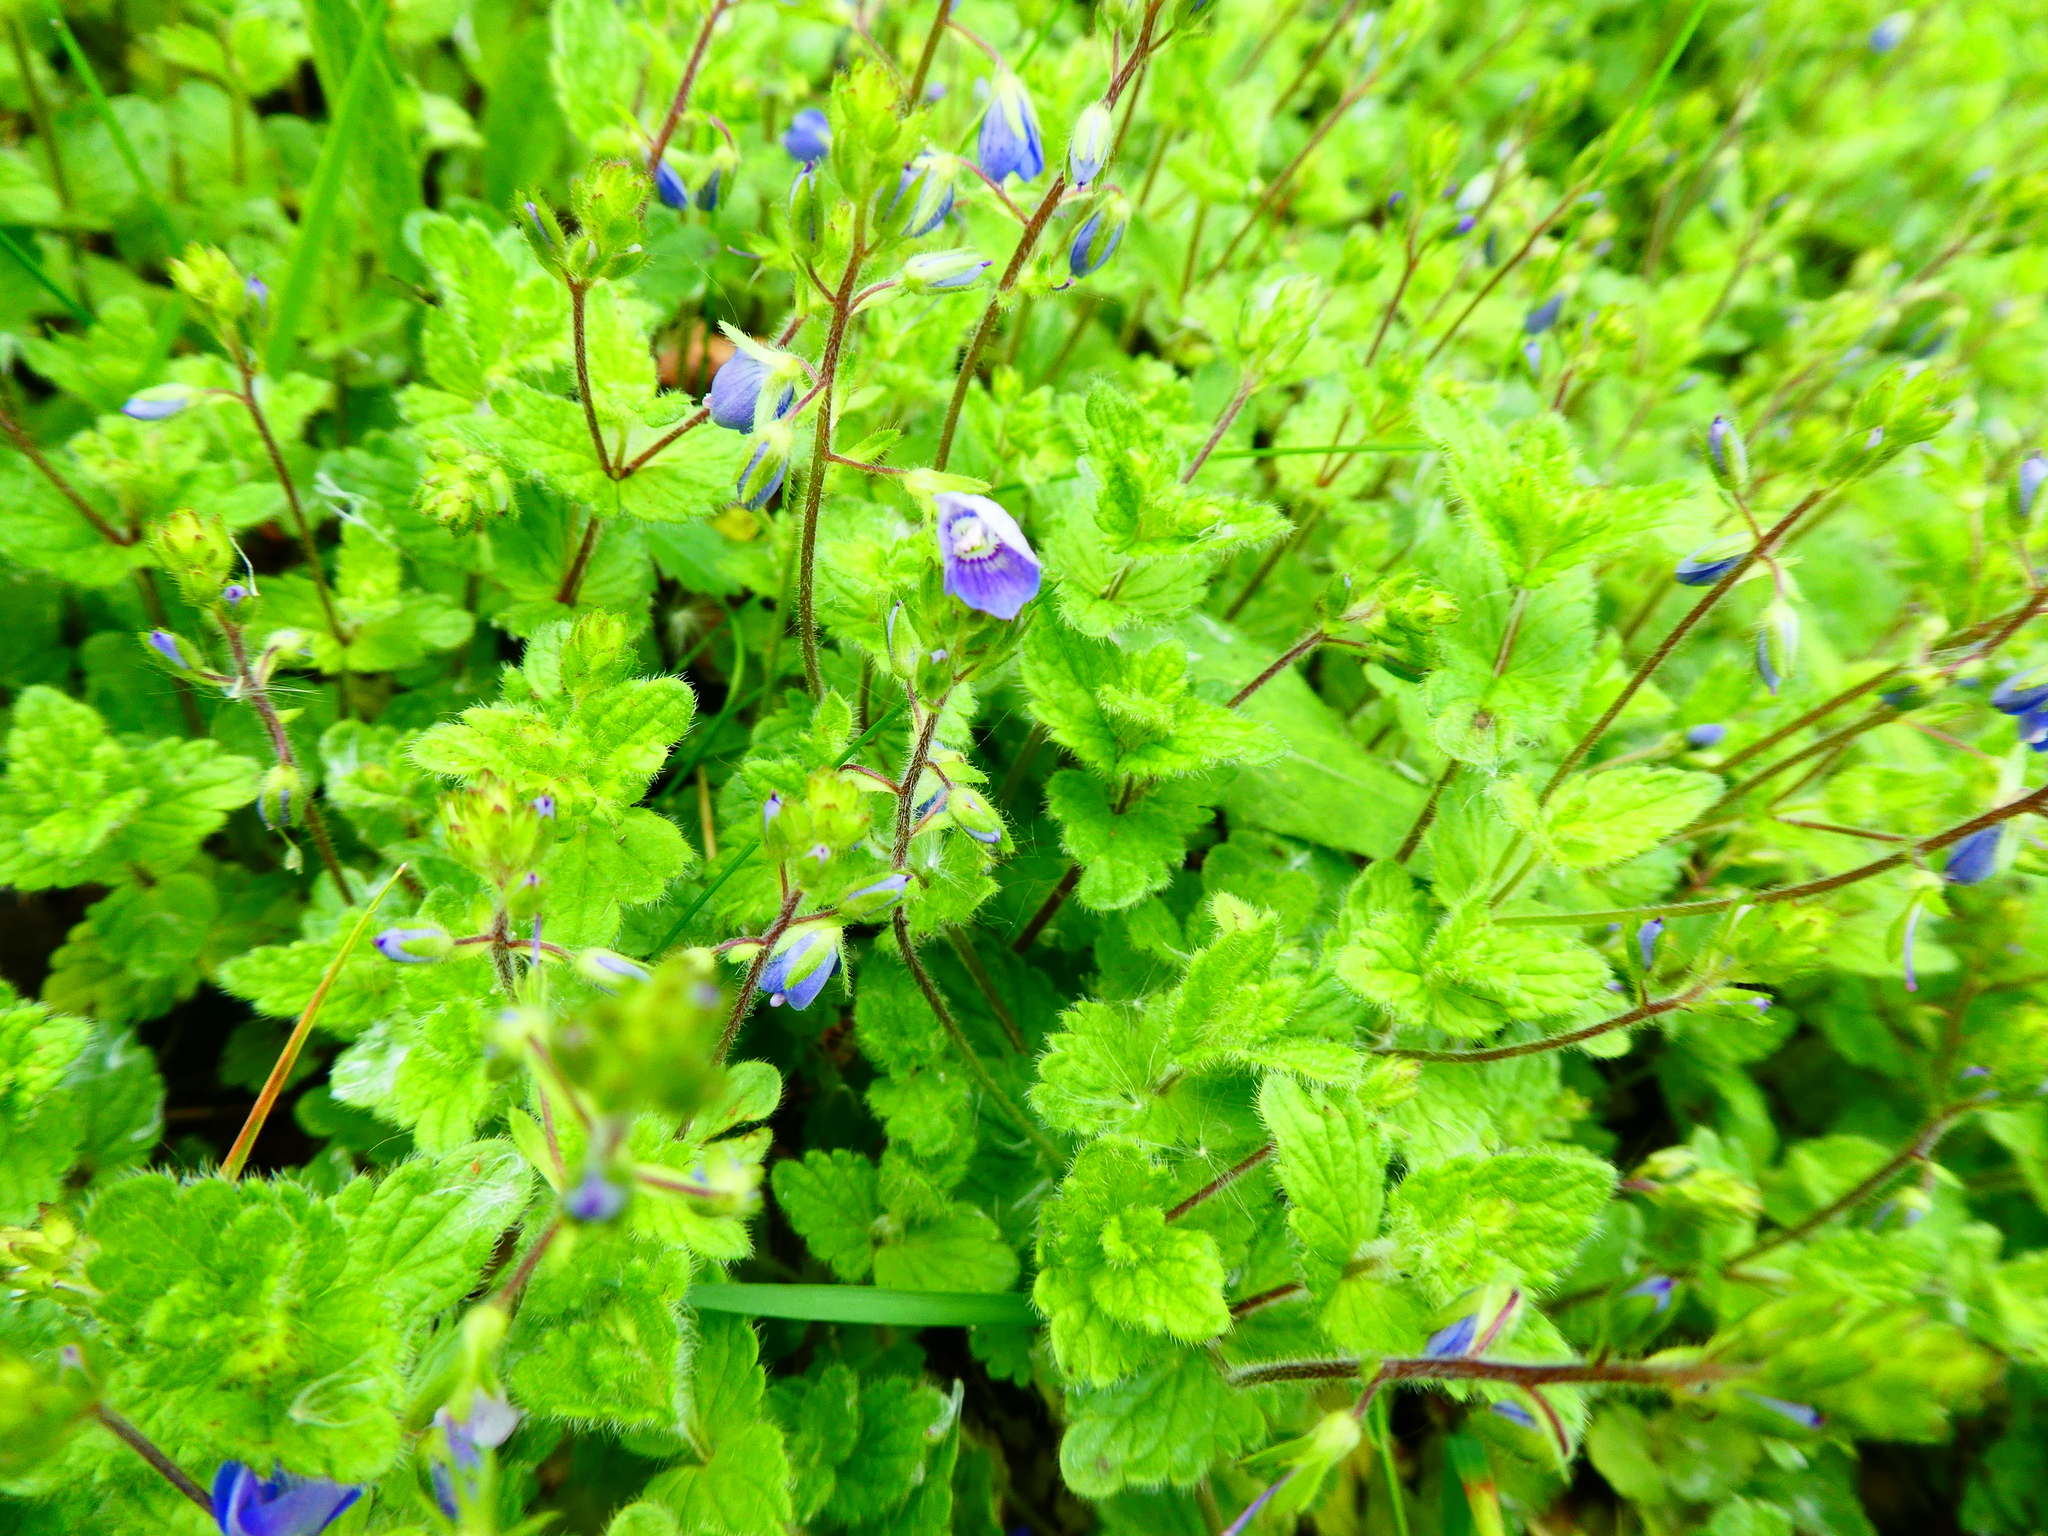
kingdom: Plantae
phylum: Tracheophyta
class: Magnoliopsida
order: Lamiales
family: Plantaginaceae
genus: Veronica
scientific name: Veronica chamaedrys
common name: Germander speedwell
